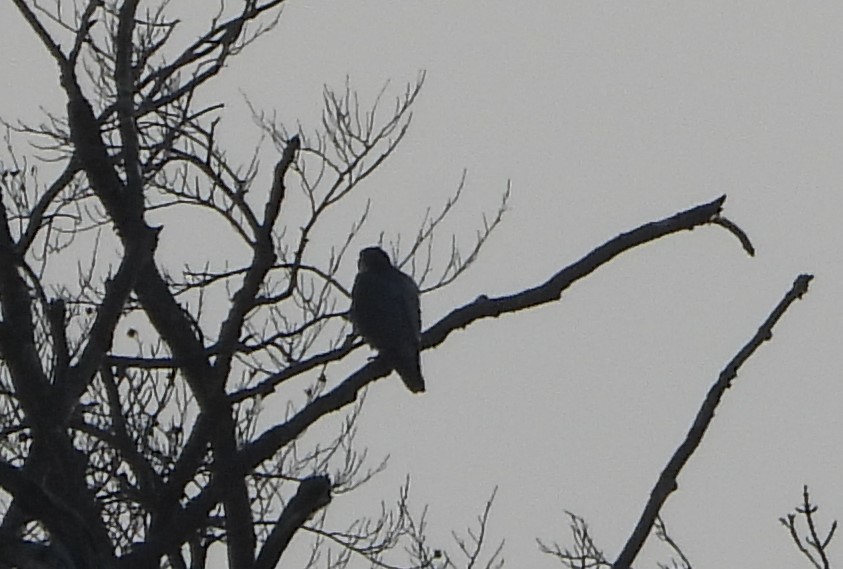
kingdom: Animalia
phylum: Chordata
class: Aves
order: Falconiformes
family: Falconidae
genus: Falco
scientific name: Falco peregrinus
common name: Peregrine falcon
